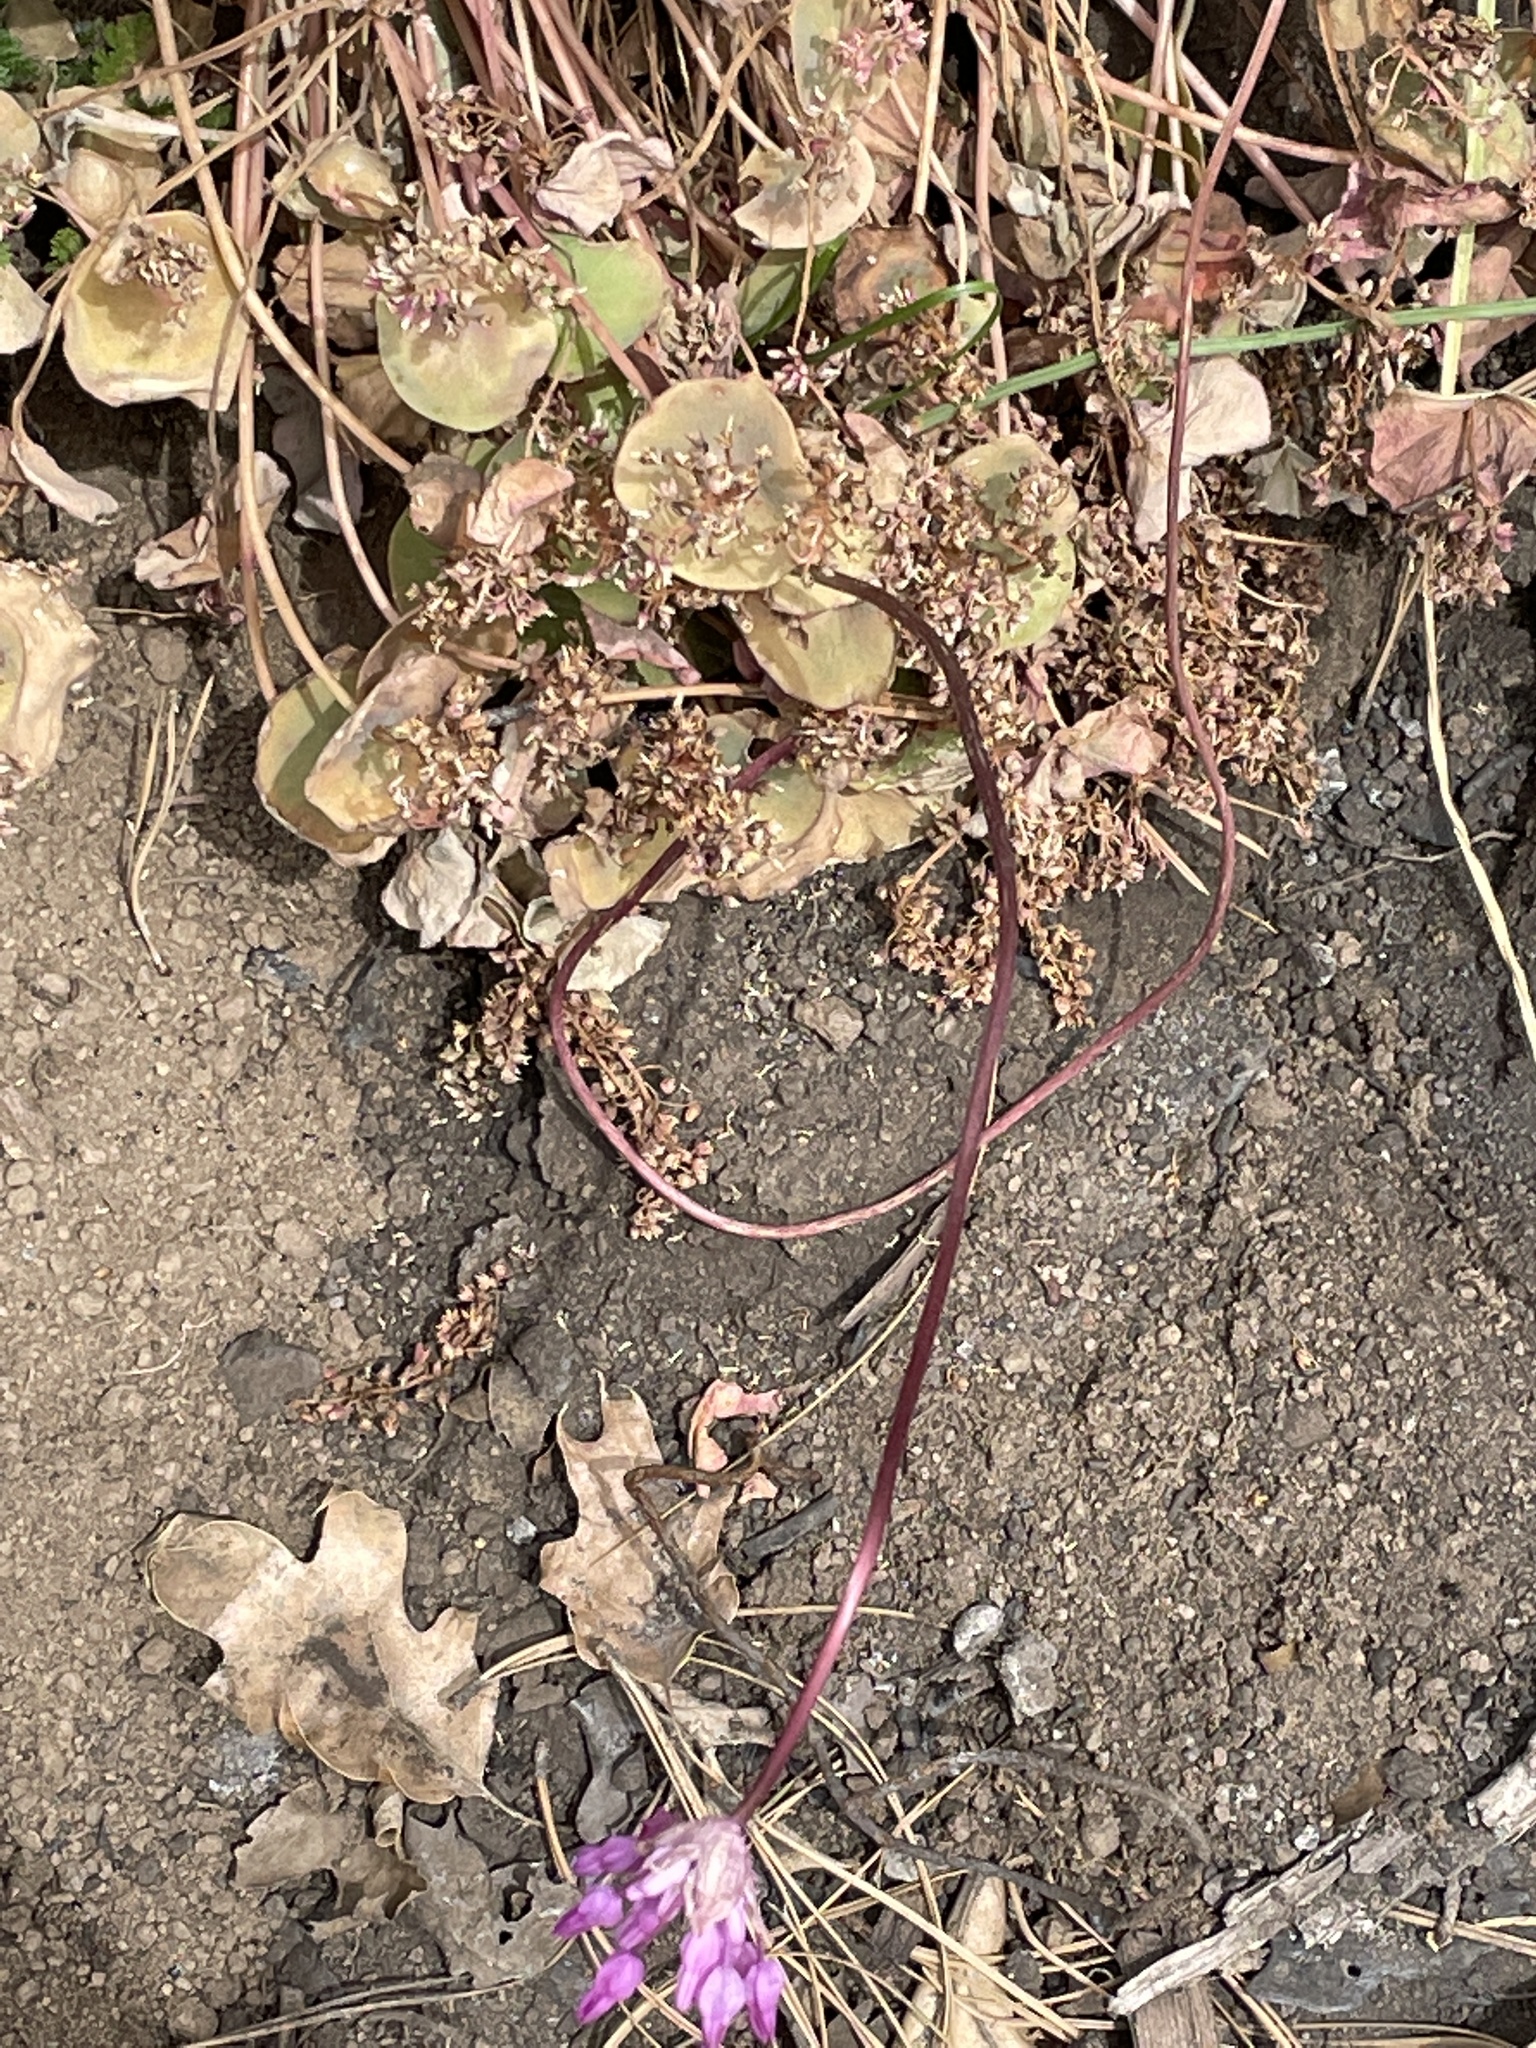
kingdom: Plantae
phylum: Tracheophyta
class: Liliopsida
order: Asparagales
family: Asparagaceae
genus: Dichelostemma
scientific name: Dichelostemma volubile
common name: Trining brodiaea
